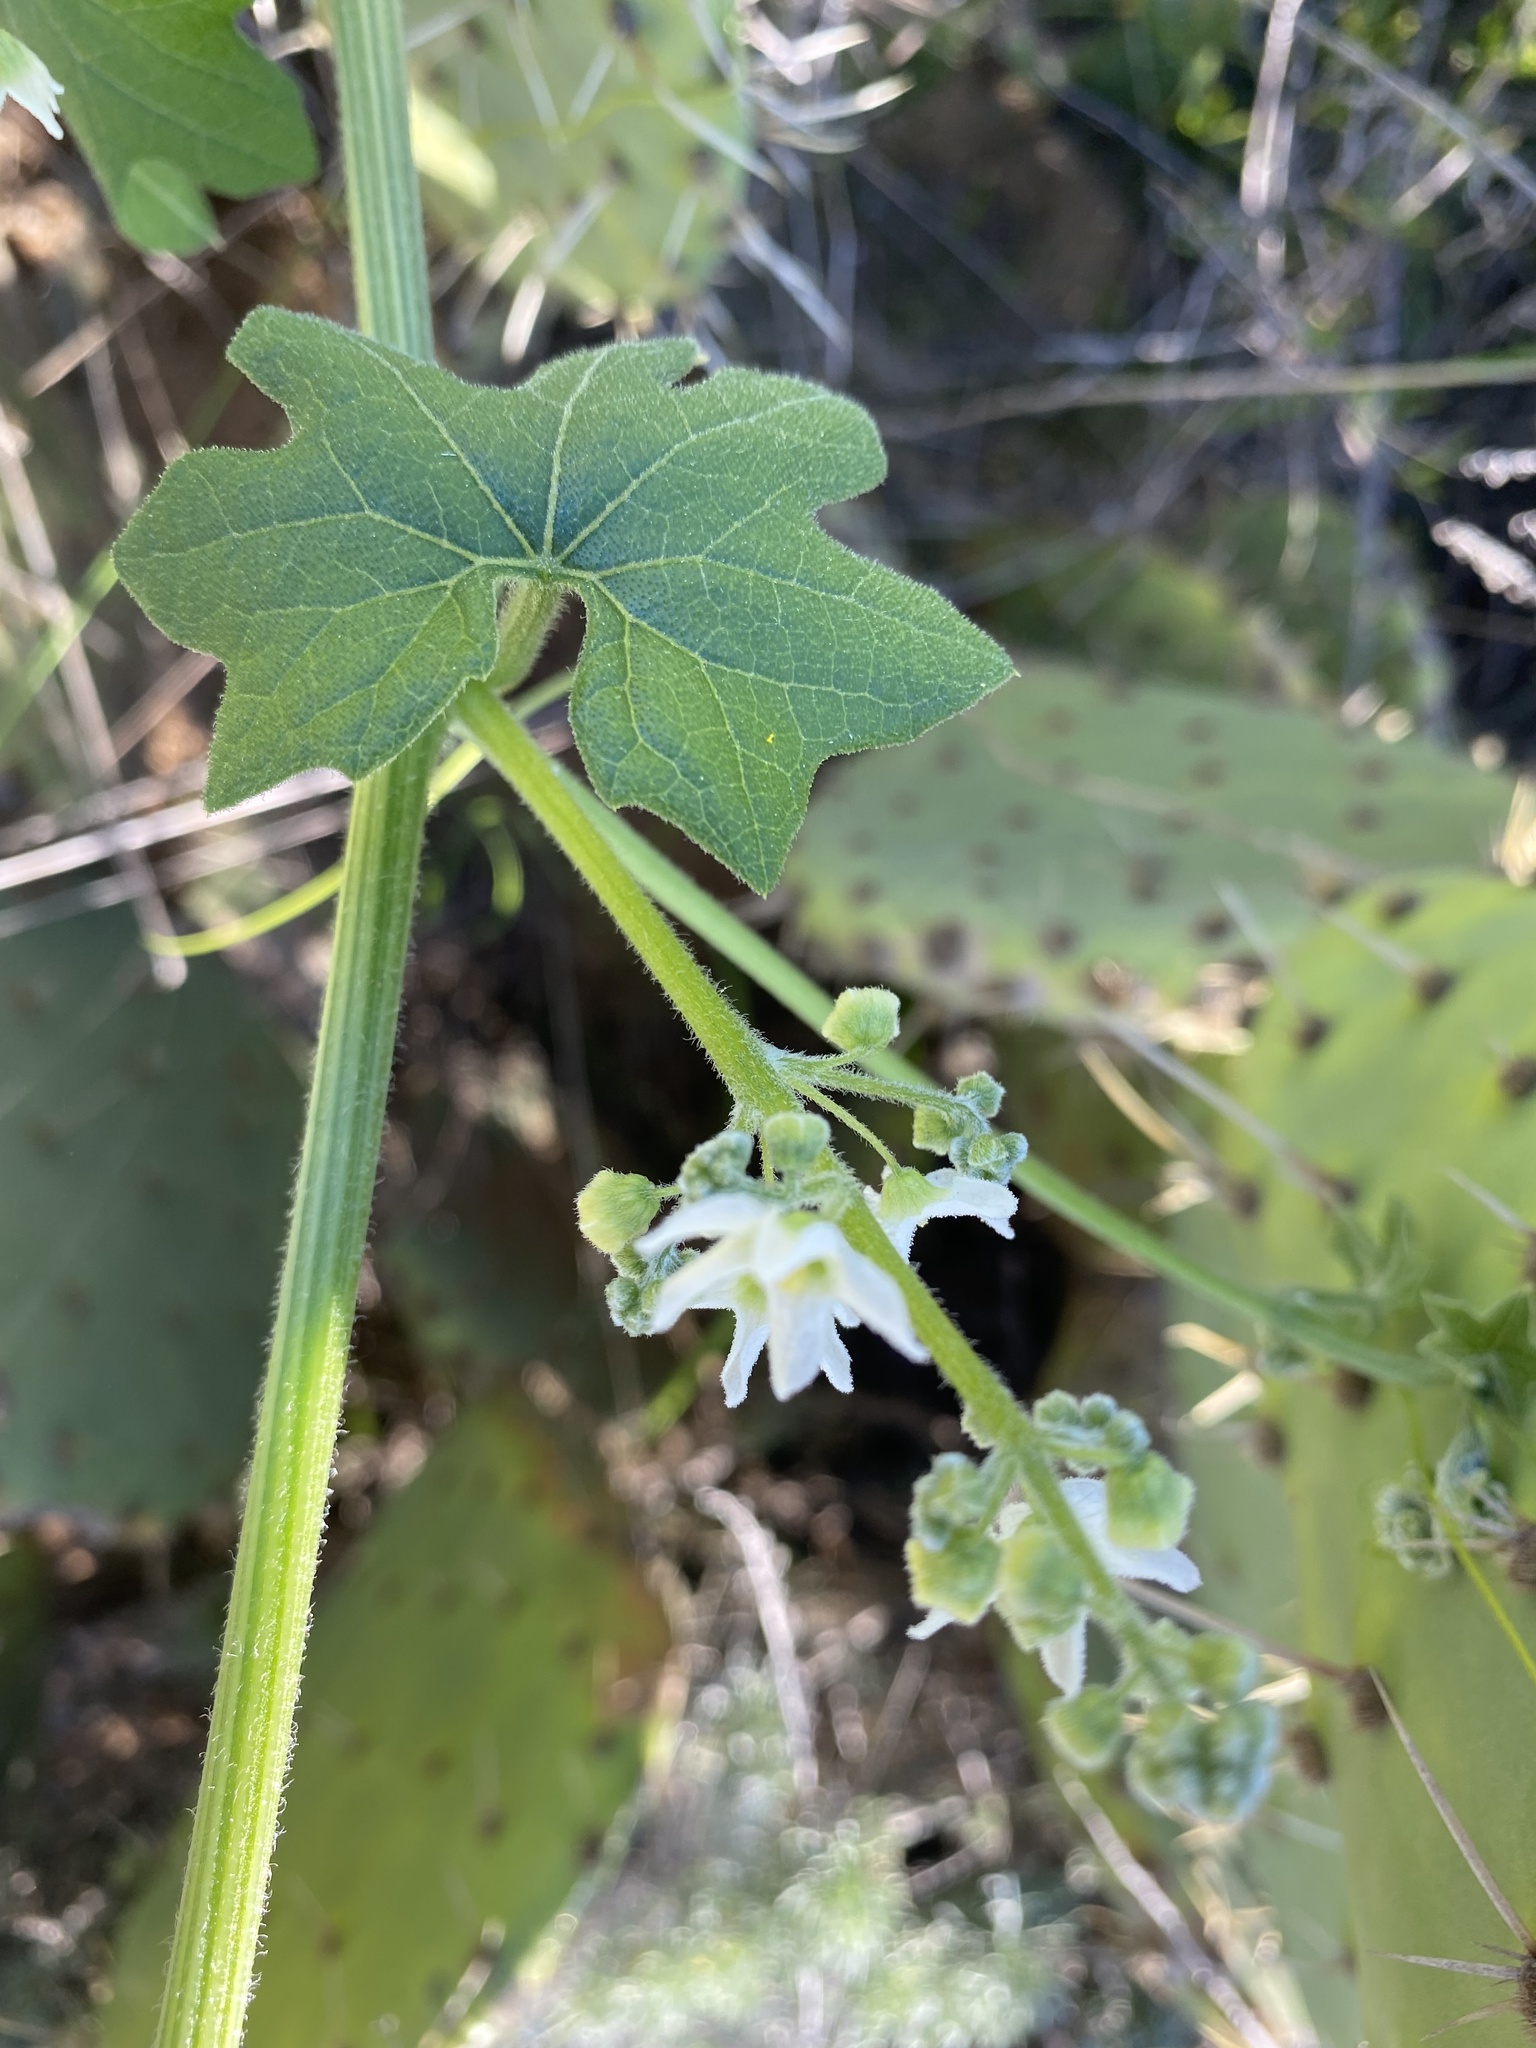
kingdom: Plantae
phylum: Tracheophyta
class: Magnoliopsida
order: Cucurbitales
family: Cucurbitaceae
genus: Marah
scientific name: Marah macrocarpa
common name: Cucamonga manroot
